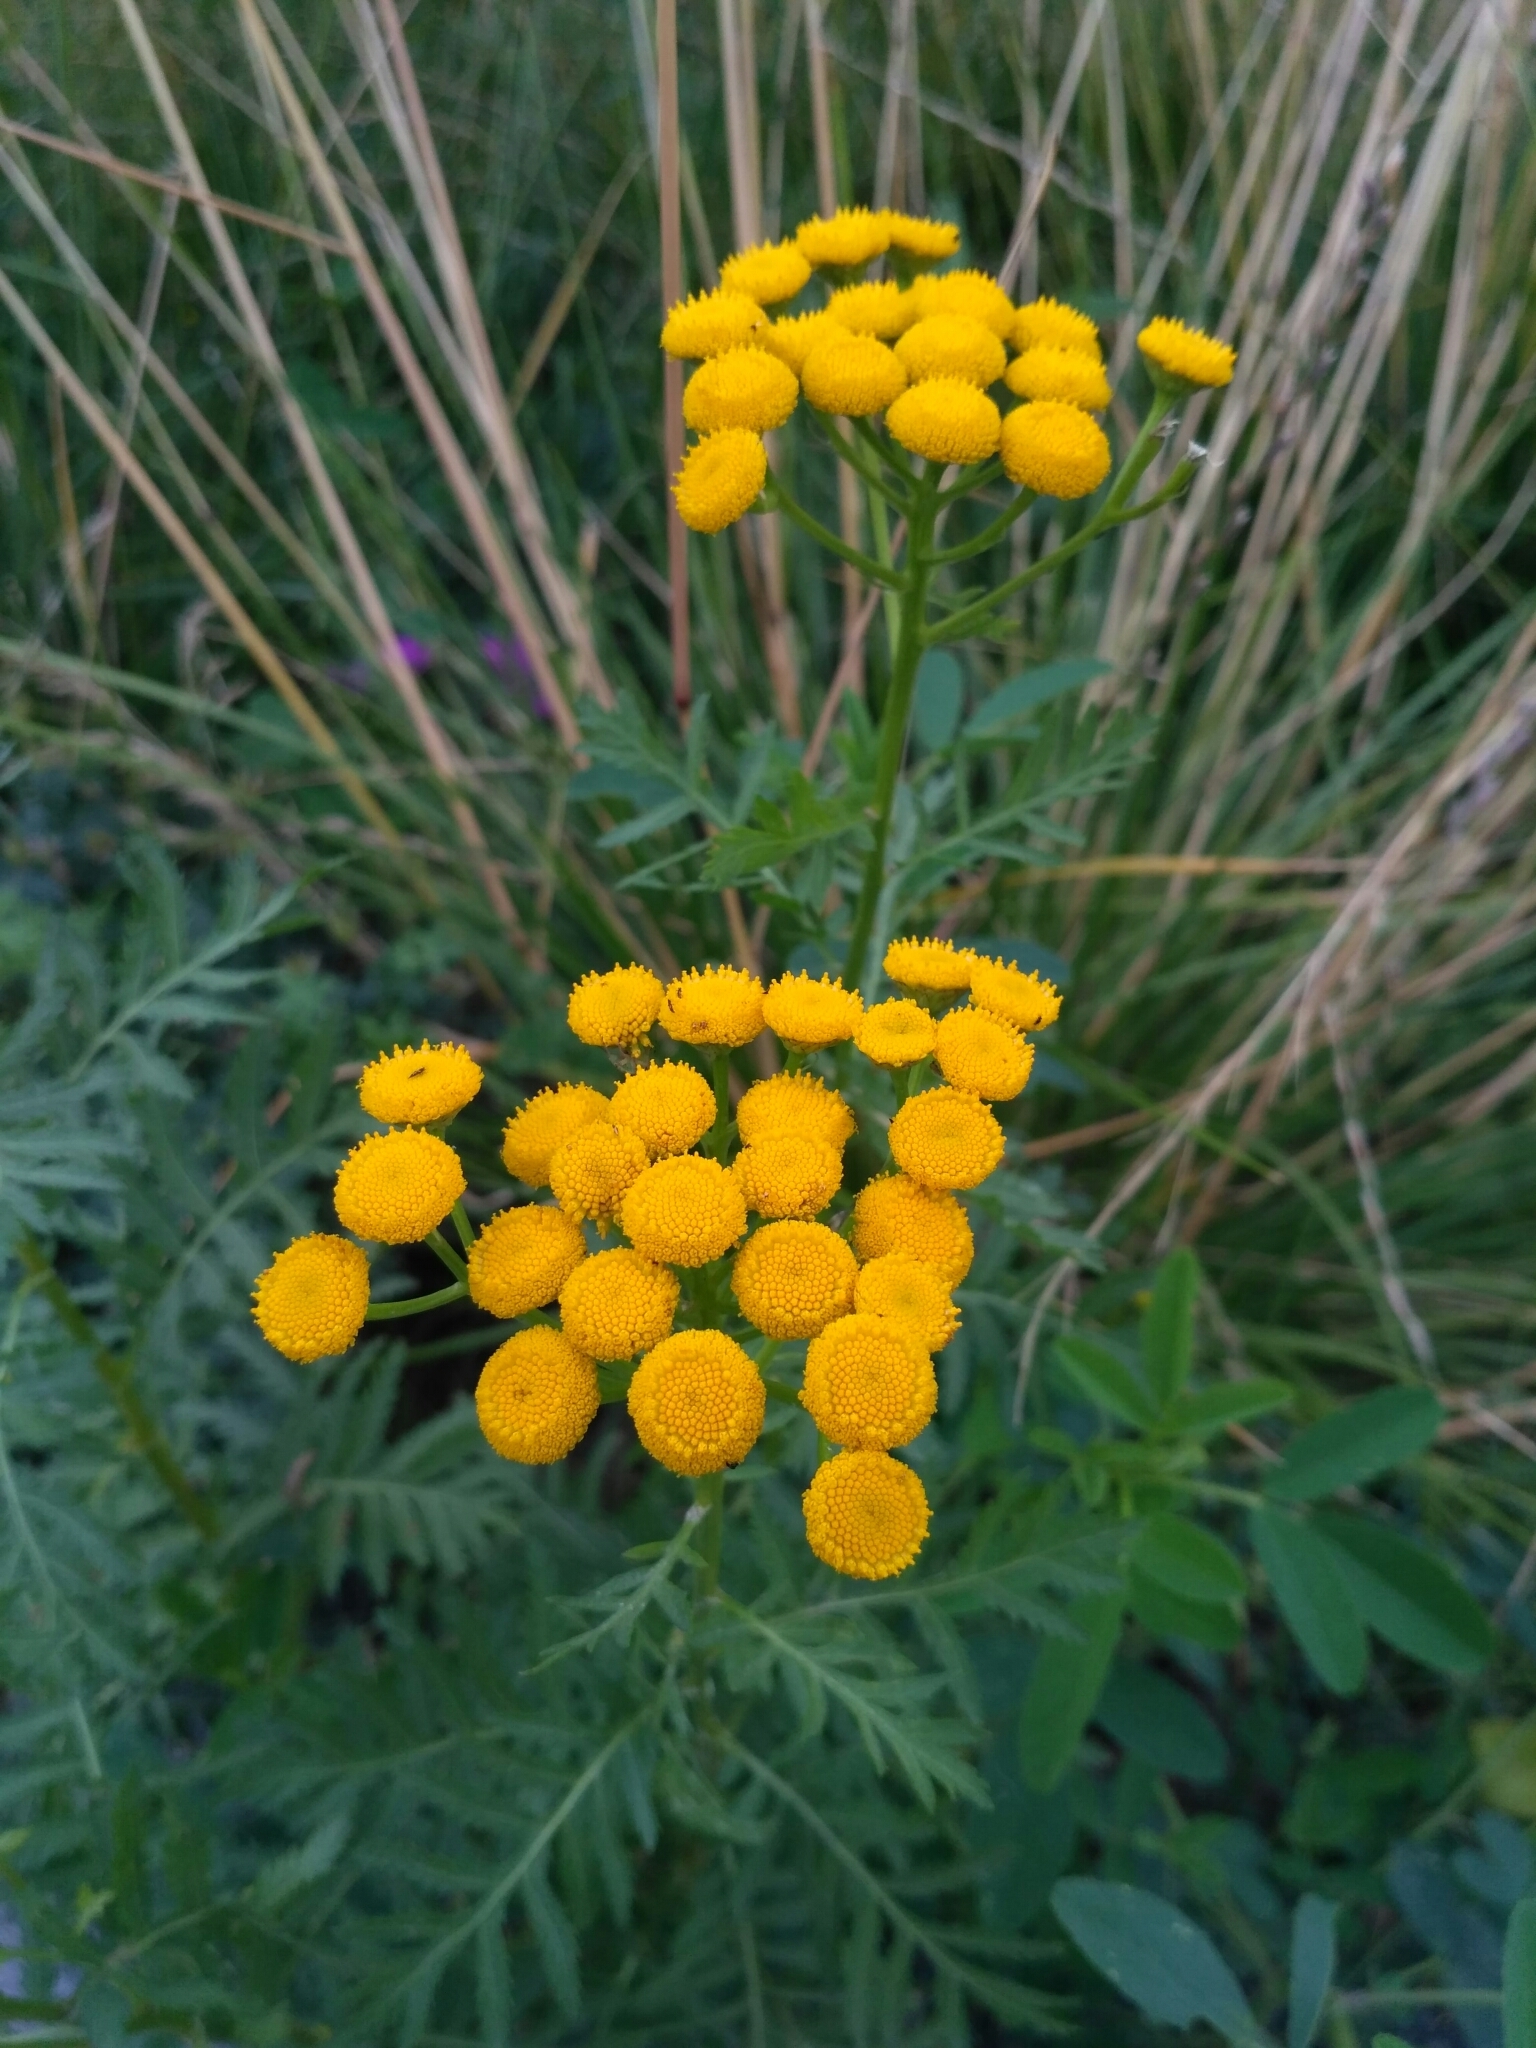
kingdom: Plantae
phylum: Tracheophyta
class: Magnoliopsida
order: Asterales
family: Asteraceae
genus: Tanacetum
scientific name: Tanacetum vulgare
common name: Common tansy
